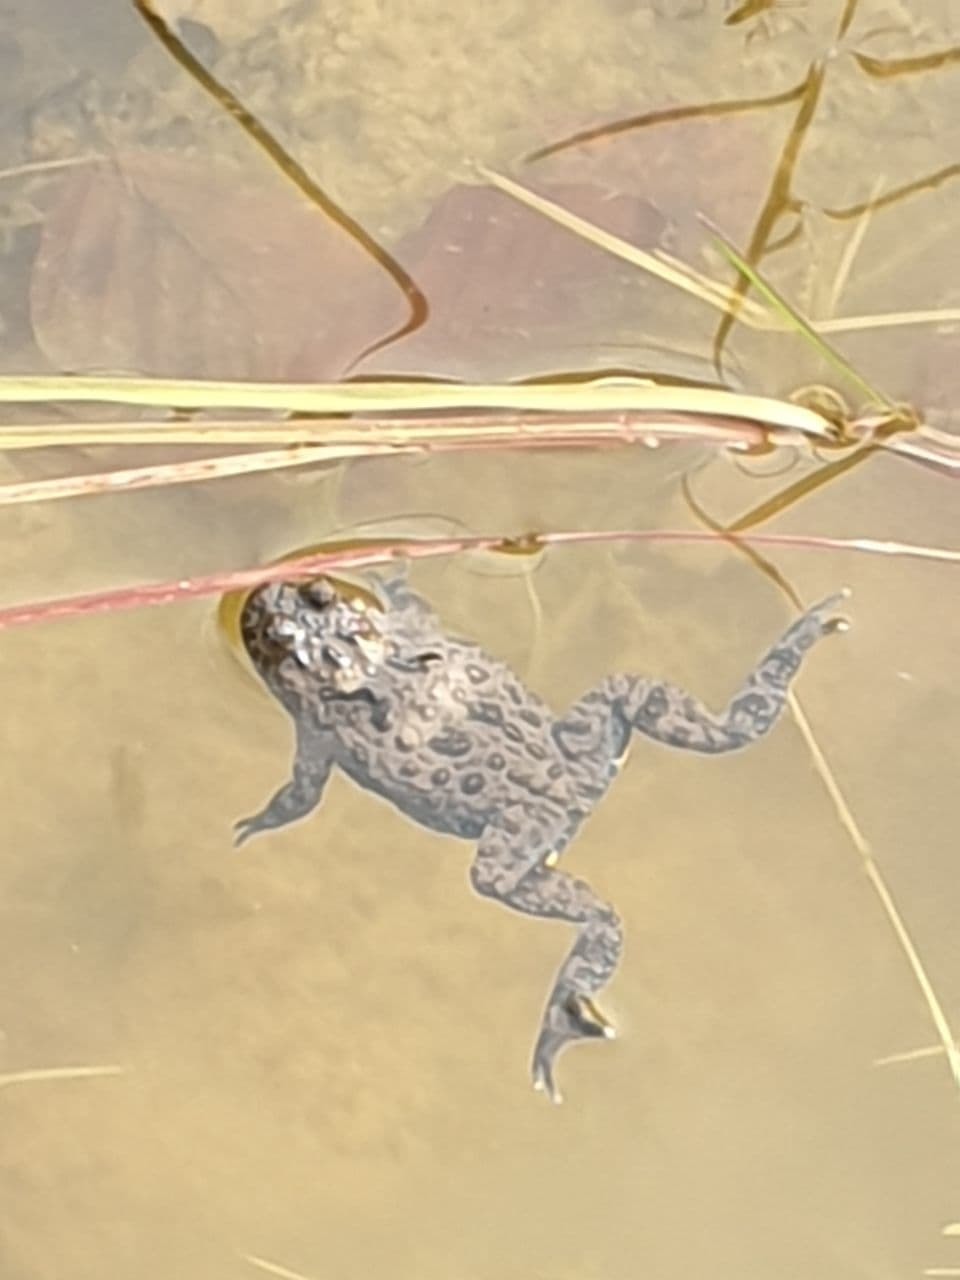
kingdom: Animalia
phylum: Chordata
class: Amphibia
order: Anura
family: Bombinatoridae
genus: Bombina
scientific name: Bombina variegata
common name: Yellow-bellied toad
